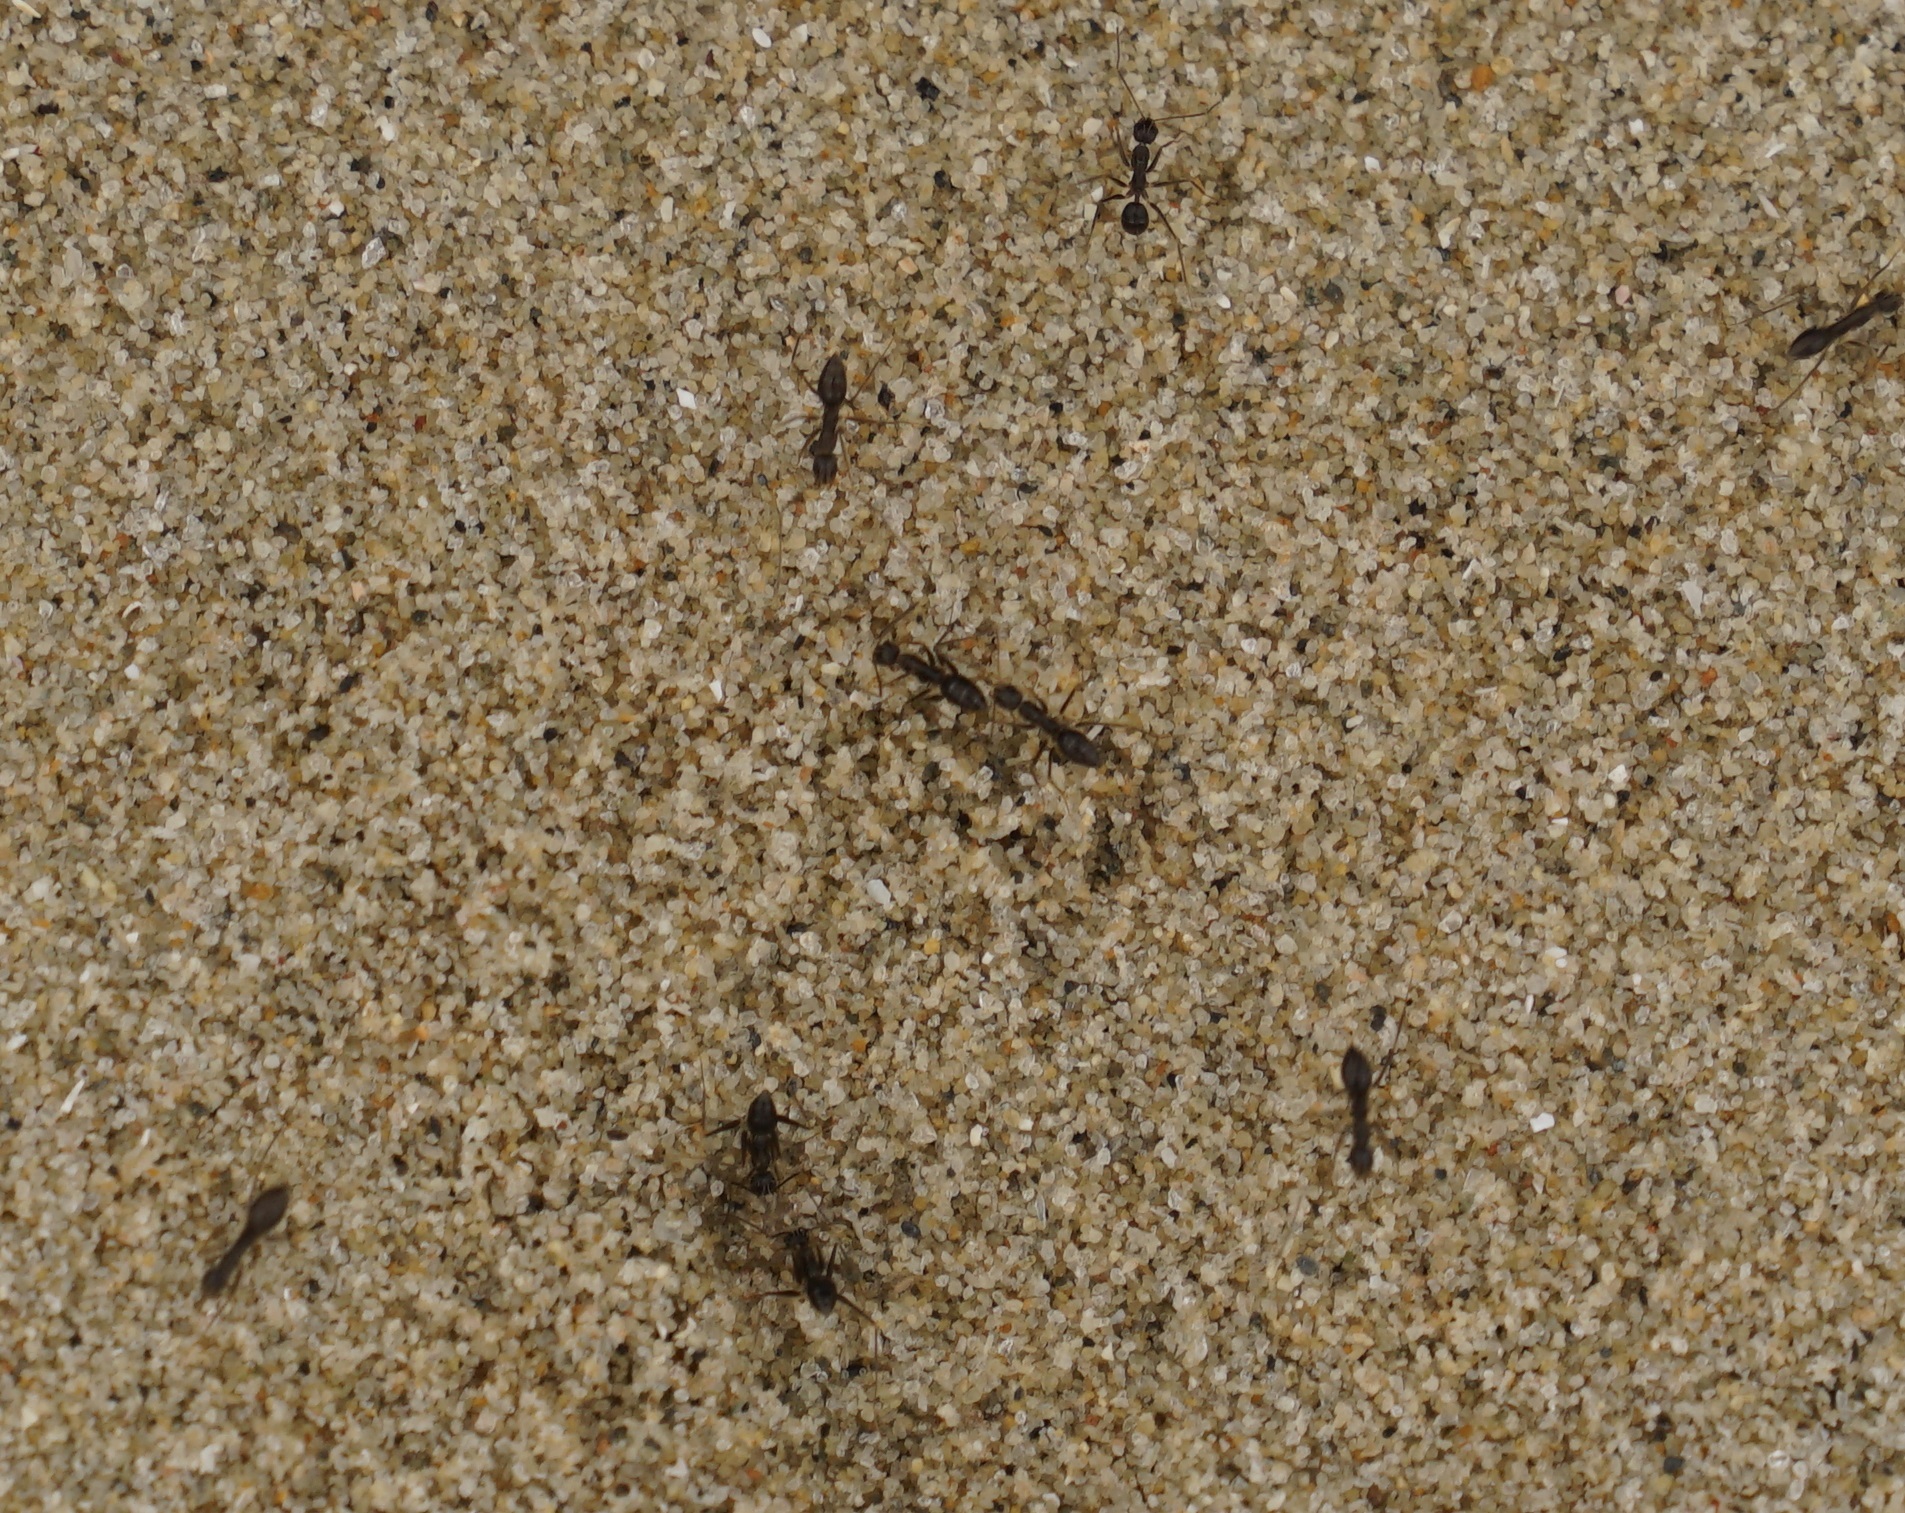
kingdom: Animalia
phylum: Arthropoda
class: Insecta
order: Hymenoptera
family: Formicidae
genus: Paratrechina
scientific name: Paratrechina longicornis
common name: Longhorned crazy ant
